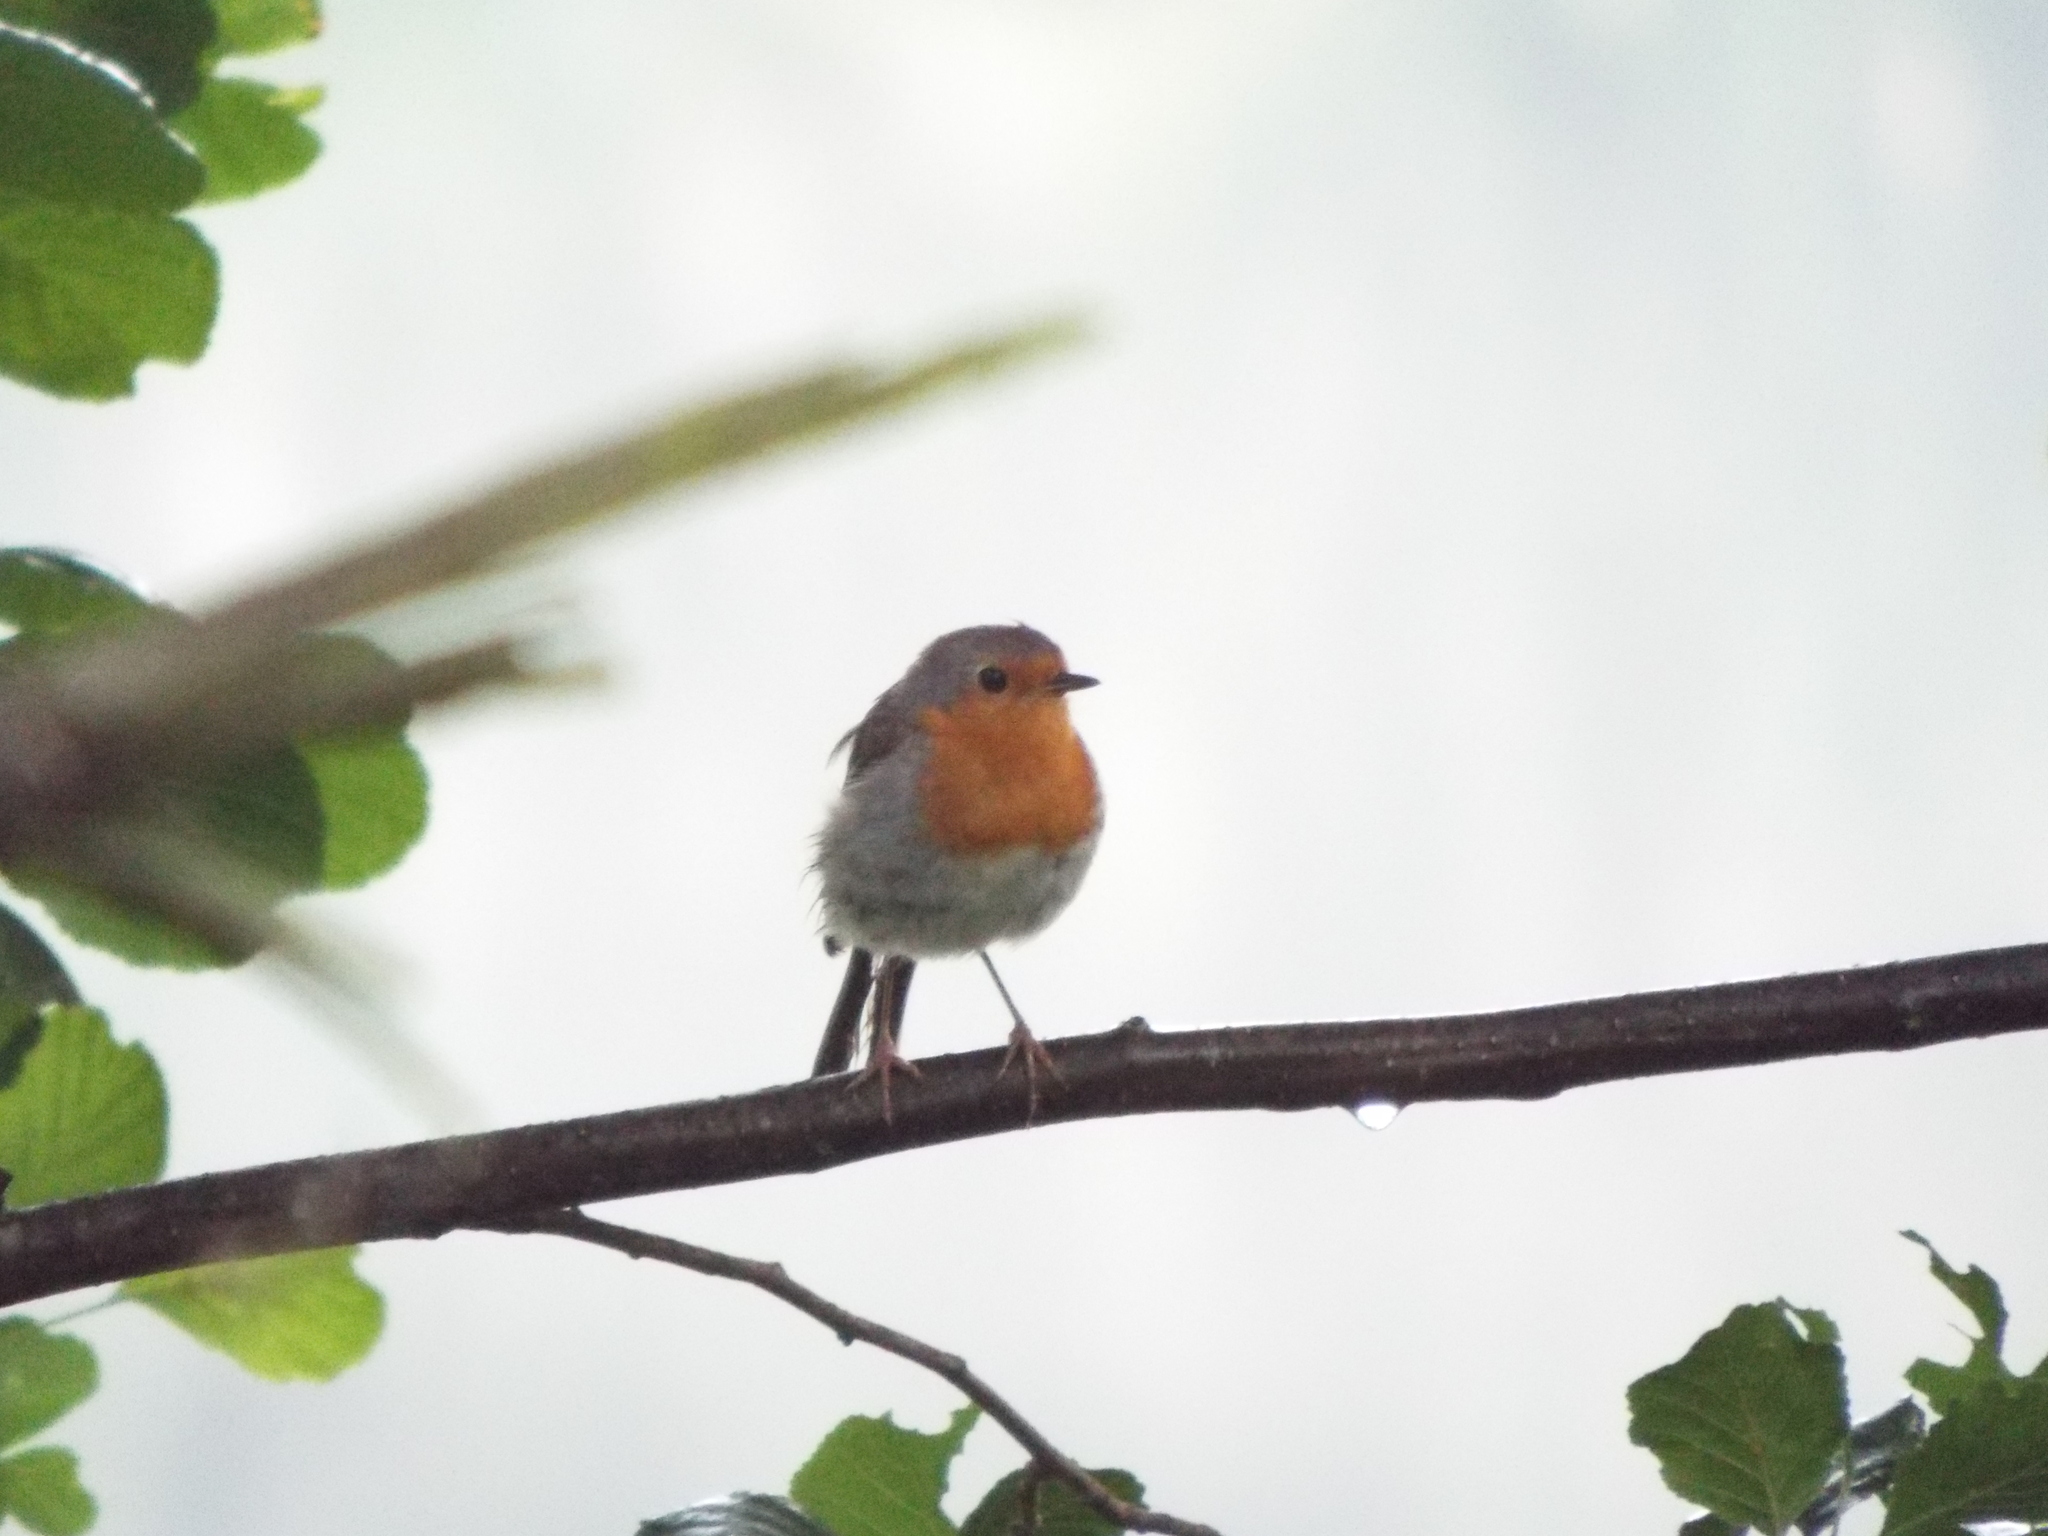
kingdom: Animalia
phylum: Chordata
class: Aves
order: Passeriformes
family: Muscicapidae
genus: Erithacus
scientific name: Erithacus rubecula
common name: European robin
